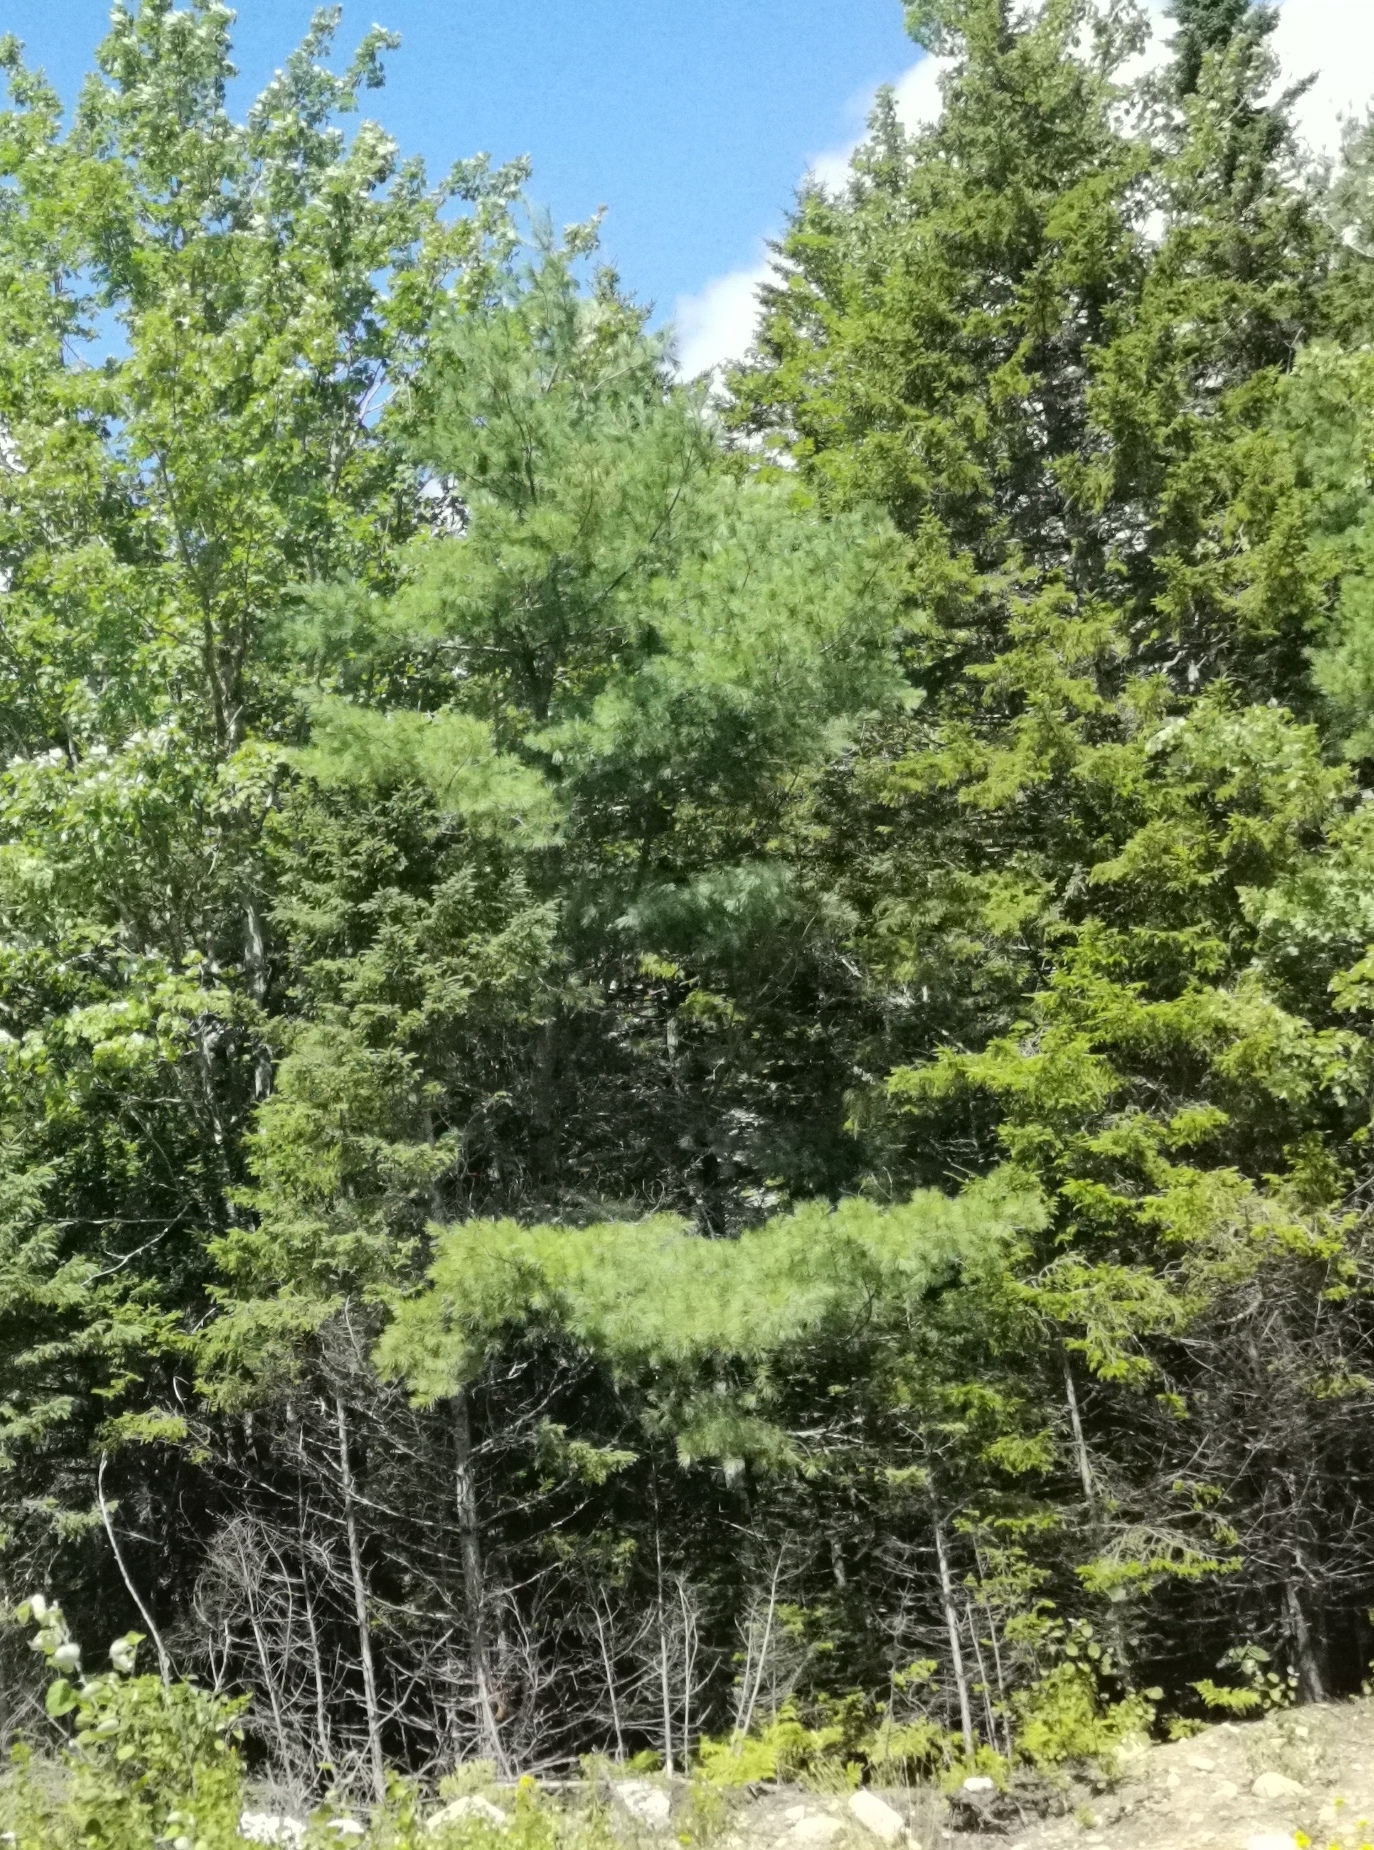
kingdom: Plantae
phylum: Tracheophyta
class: Pinopsida
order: Pinales
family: Pinaceae
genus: Pinus
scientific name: Pinus strobus
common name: Weymouth pine
